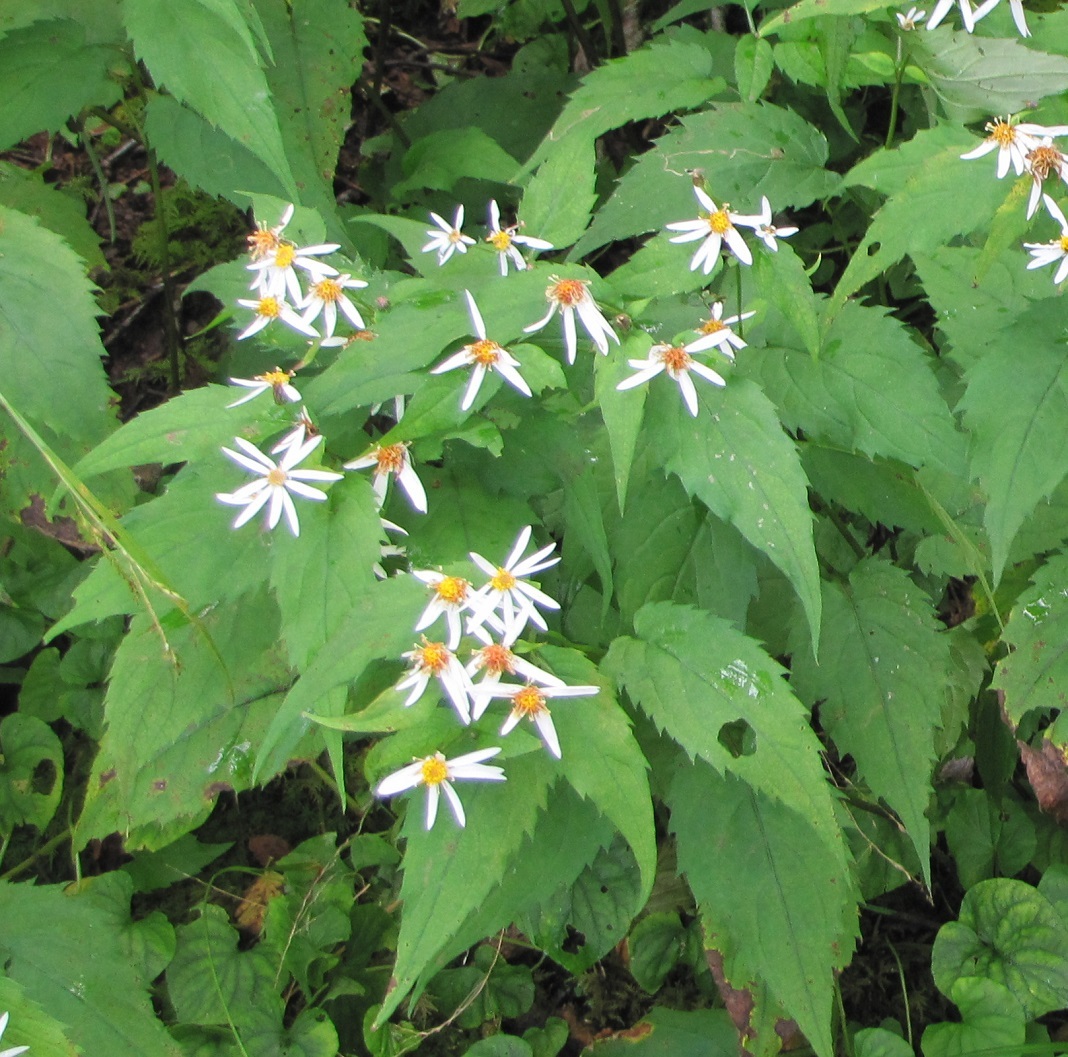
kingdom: Plantae
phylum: Tracheophyta
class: Magnoliopsida
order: Asterales
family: Asteraceae
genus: Eurybia
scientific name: Eurybia divaricata
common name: White wood aster
